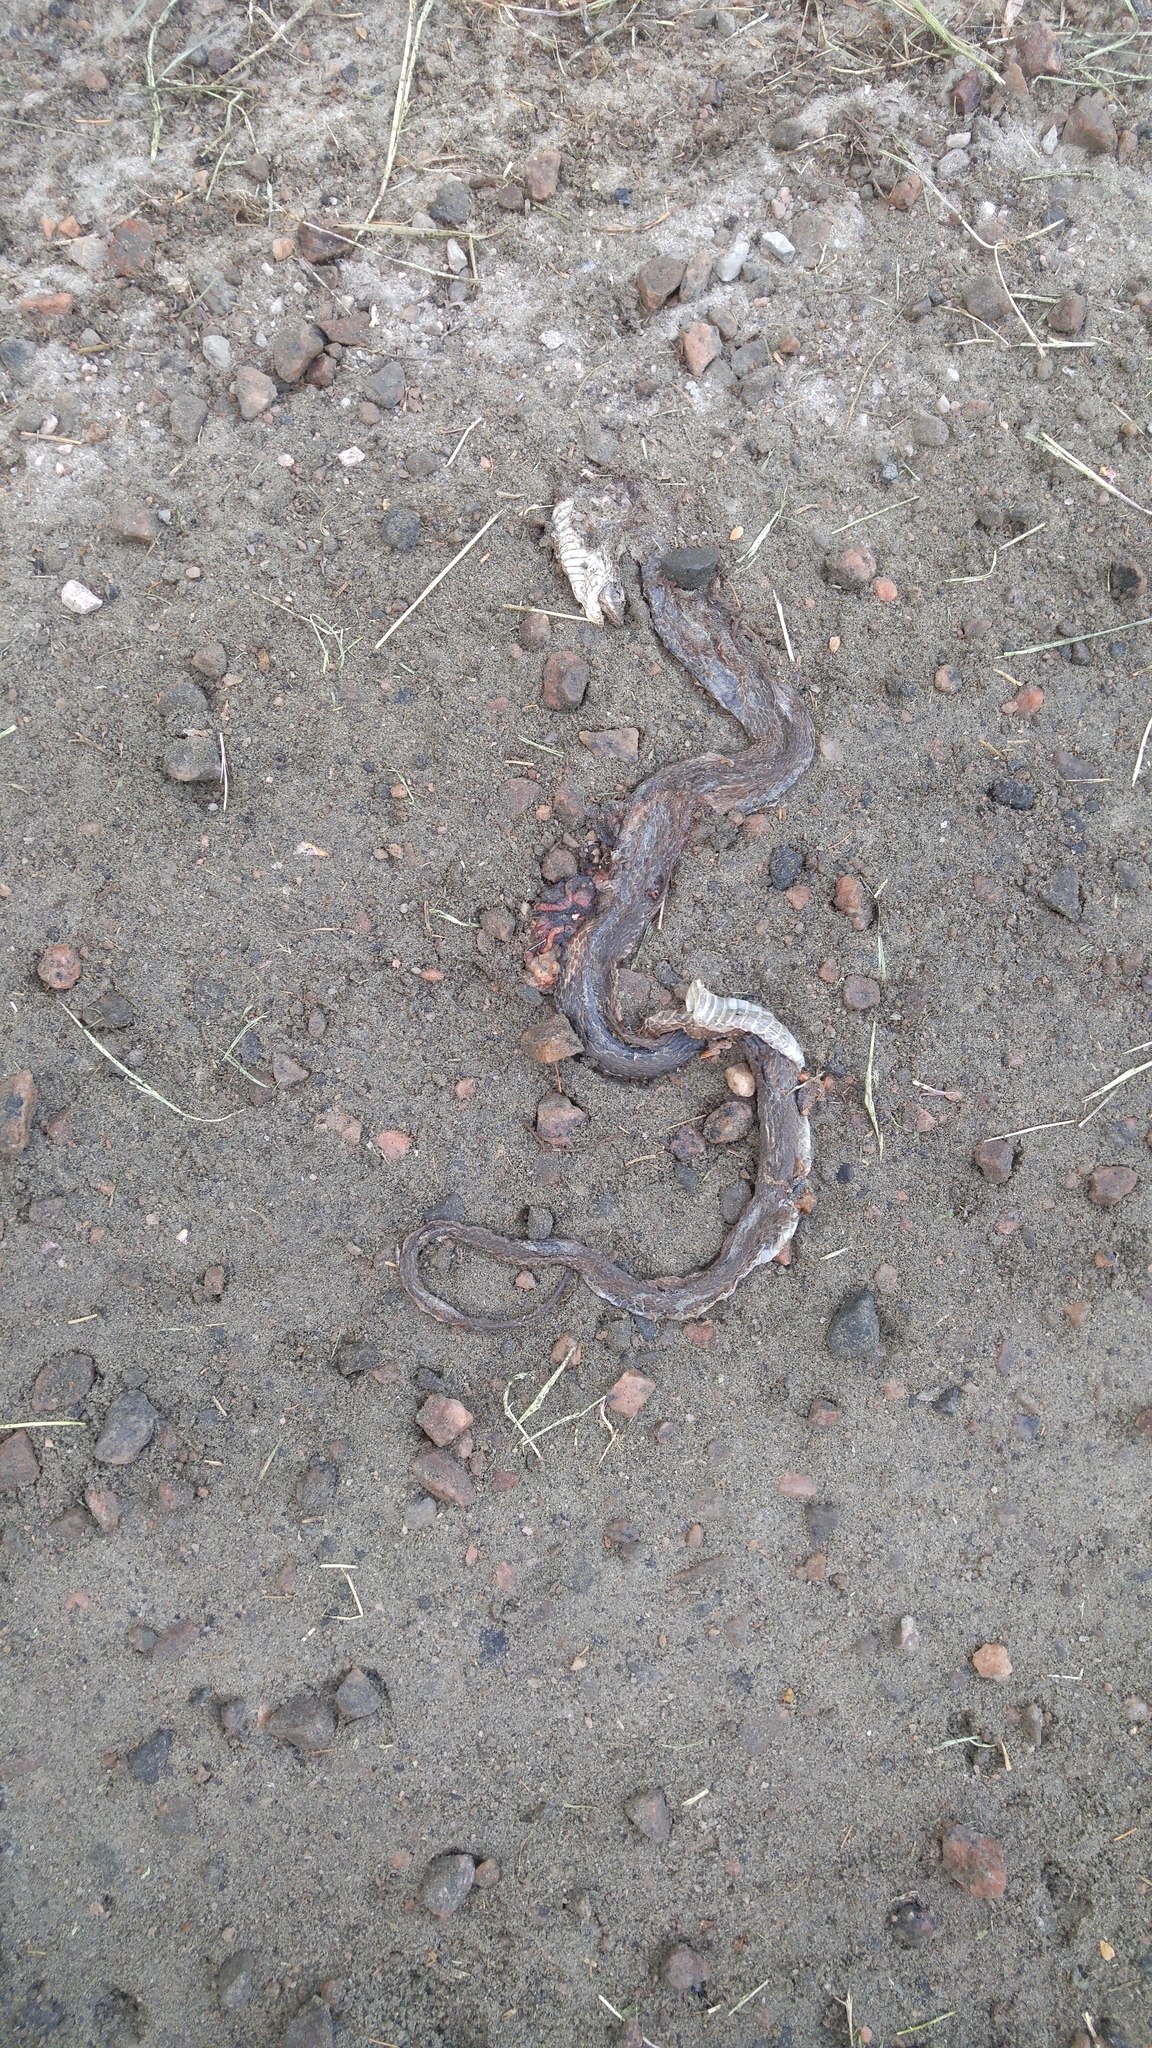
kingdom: Animalia
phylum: Chordata
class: Squamata
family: Colubridae
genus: Heterodon
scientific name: Heterodon platirhinos
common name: Eastern hognose snake
